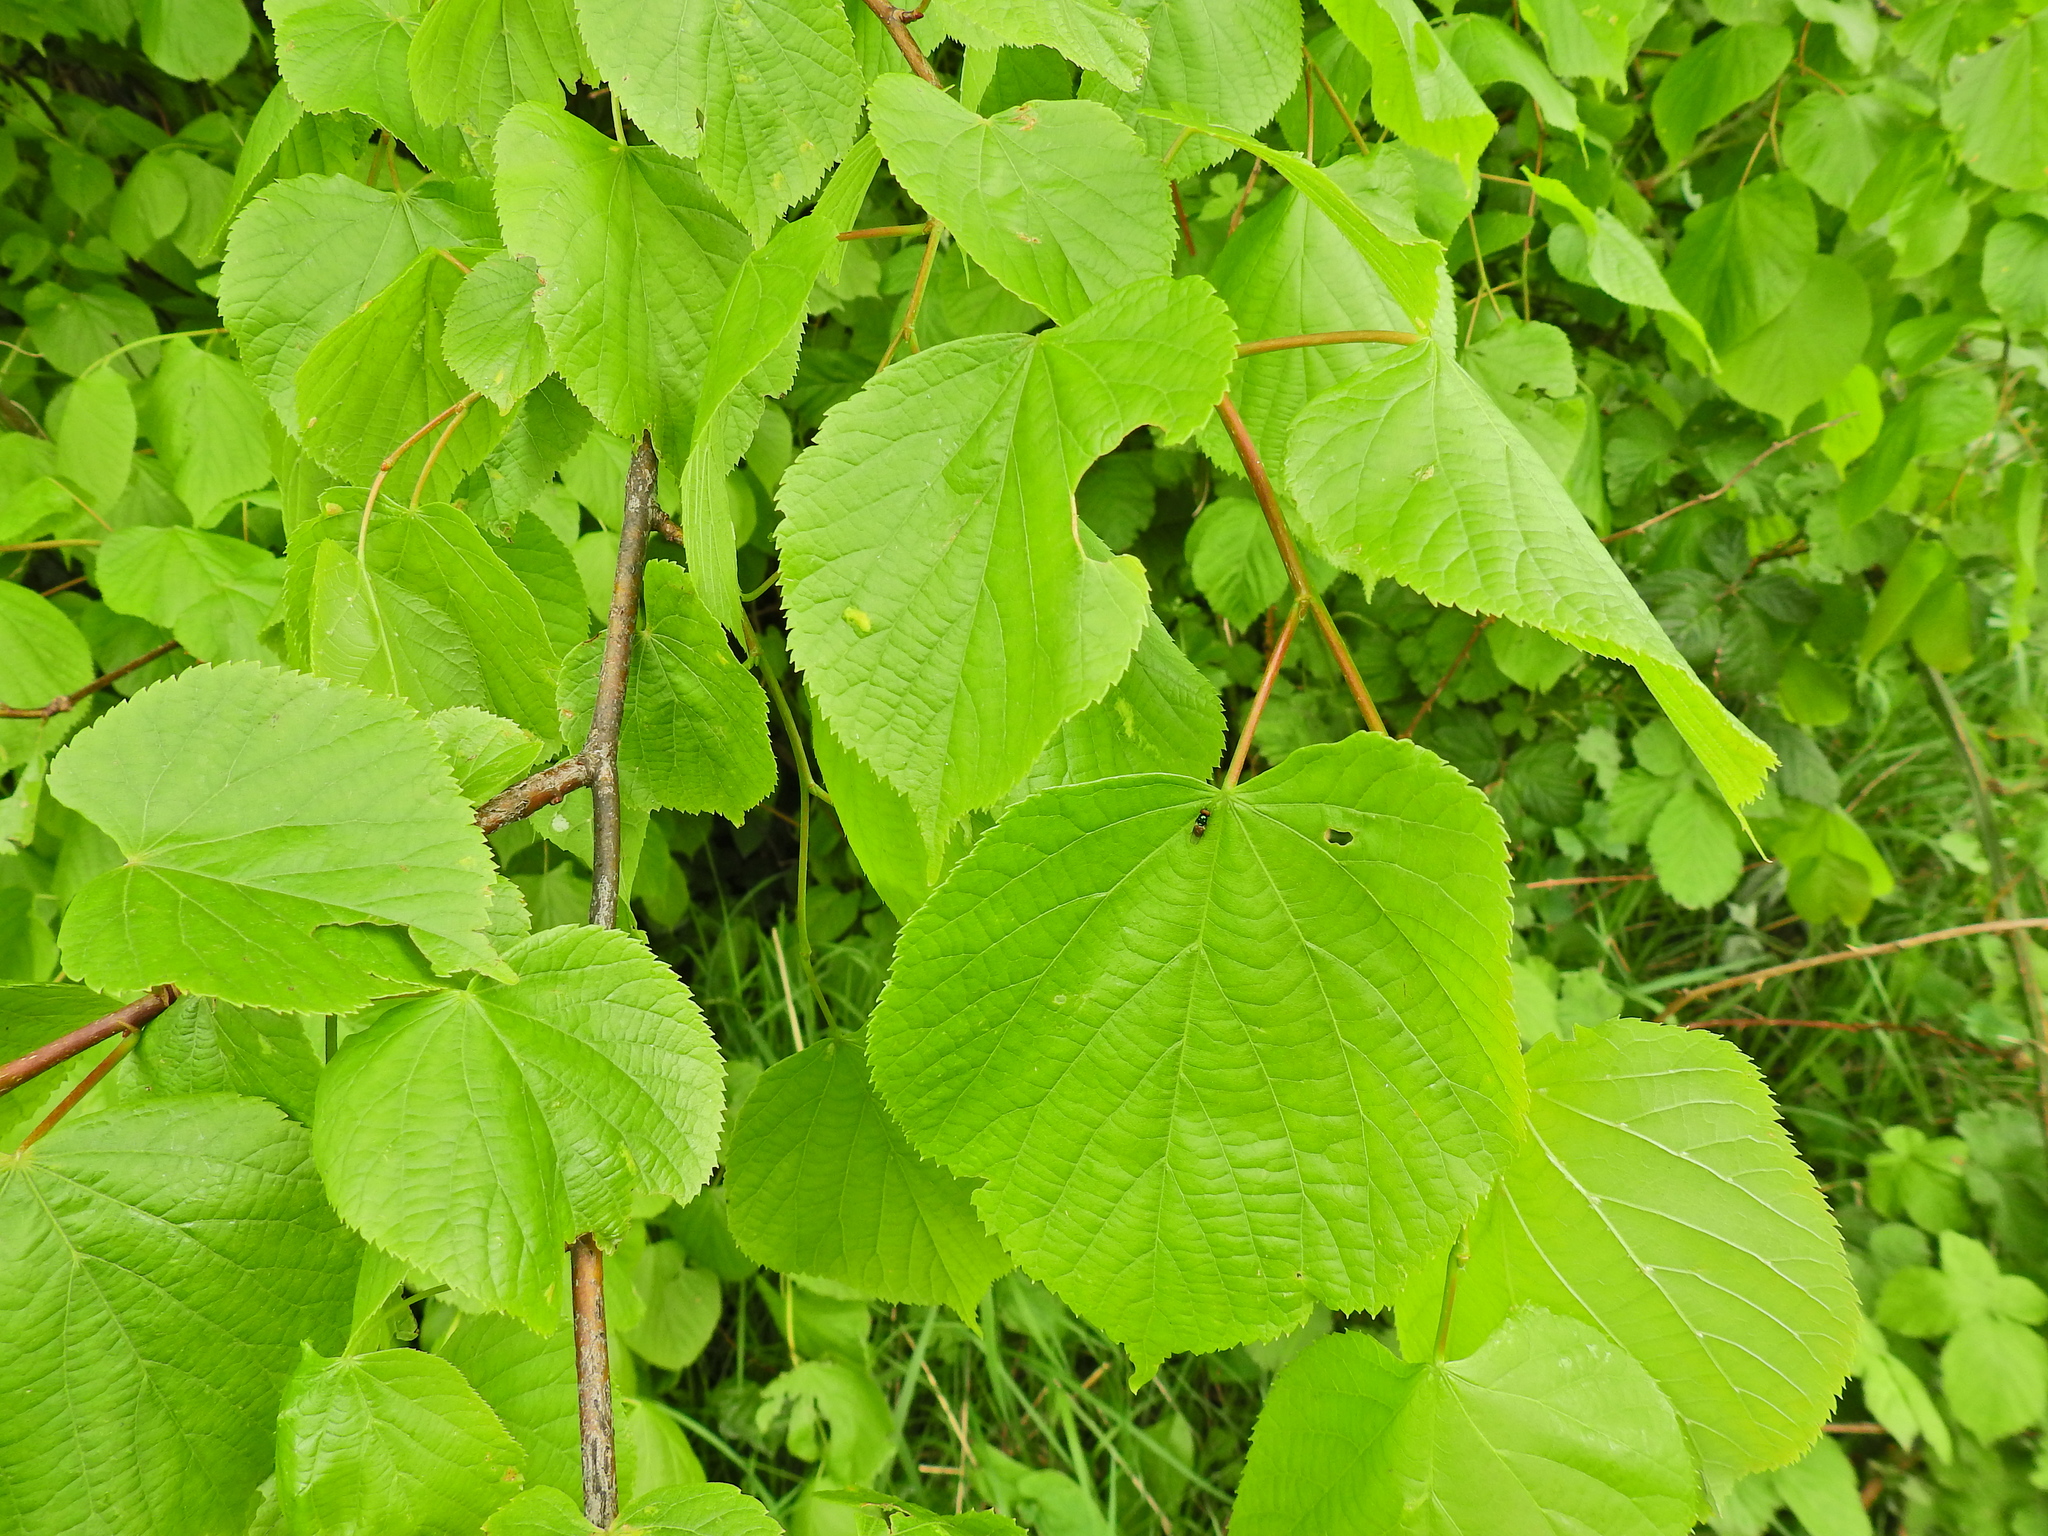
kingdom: Plantae
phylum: Tracheophyta
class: Magnoliopsida
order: Malvales
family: Malvaceae
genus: Tilia
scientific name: Tilia europaea
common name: European linden
